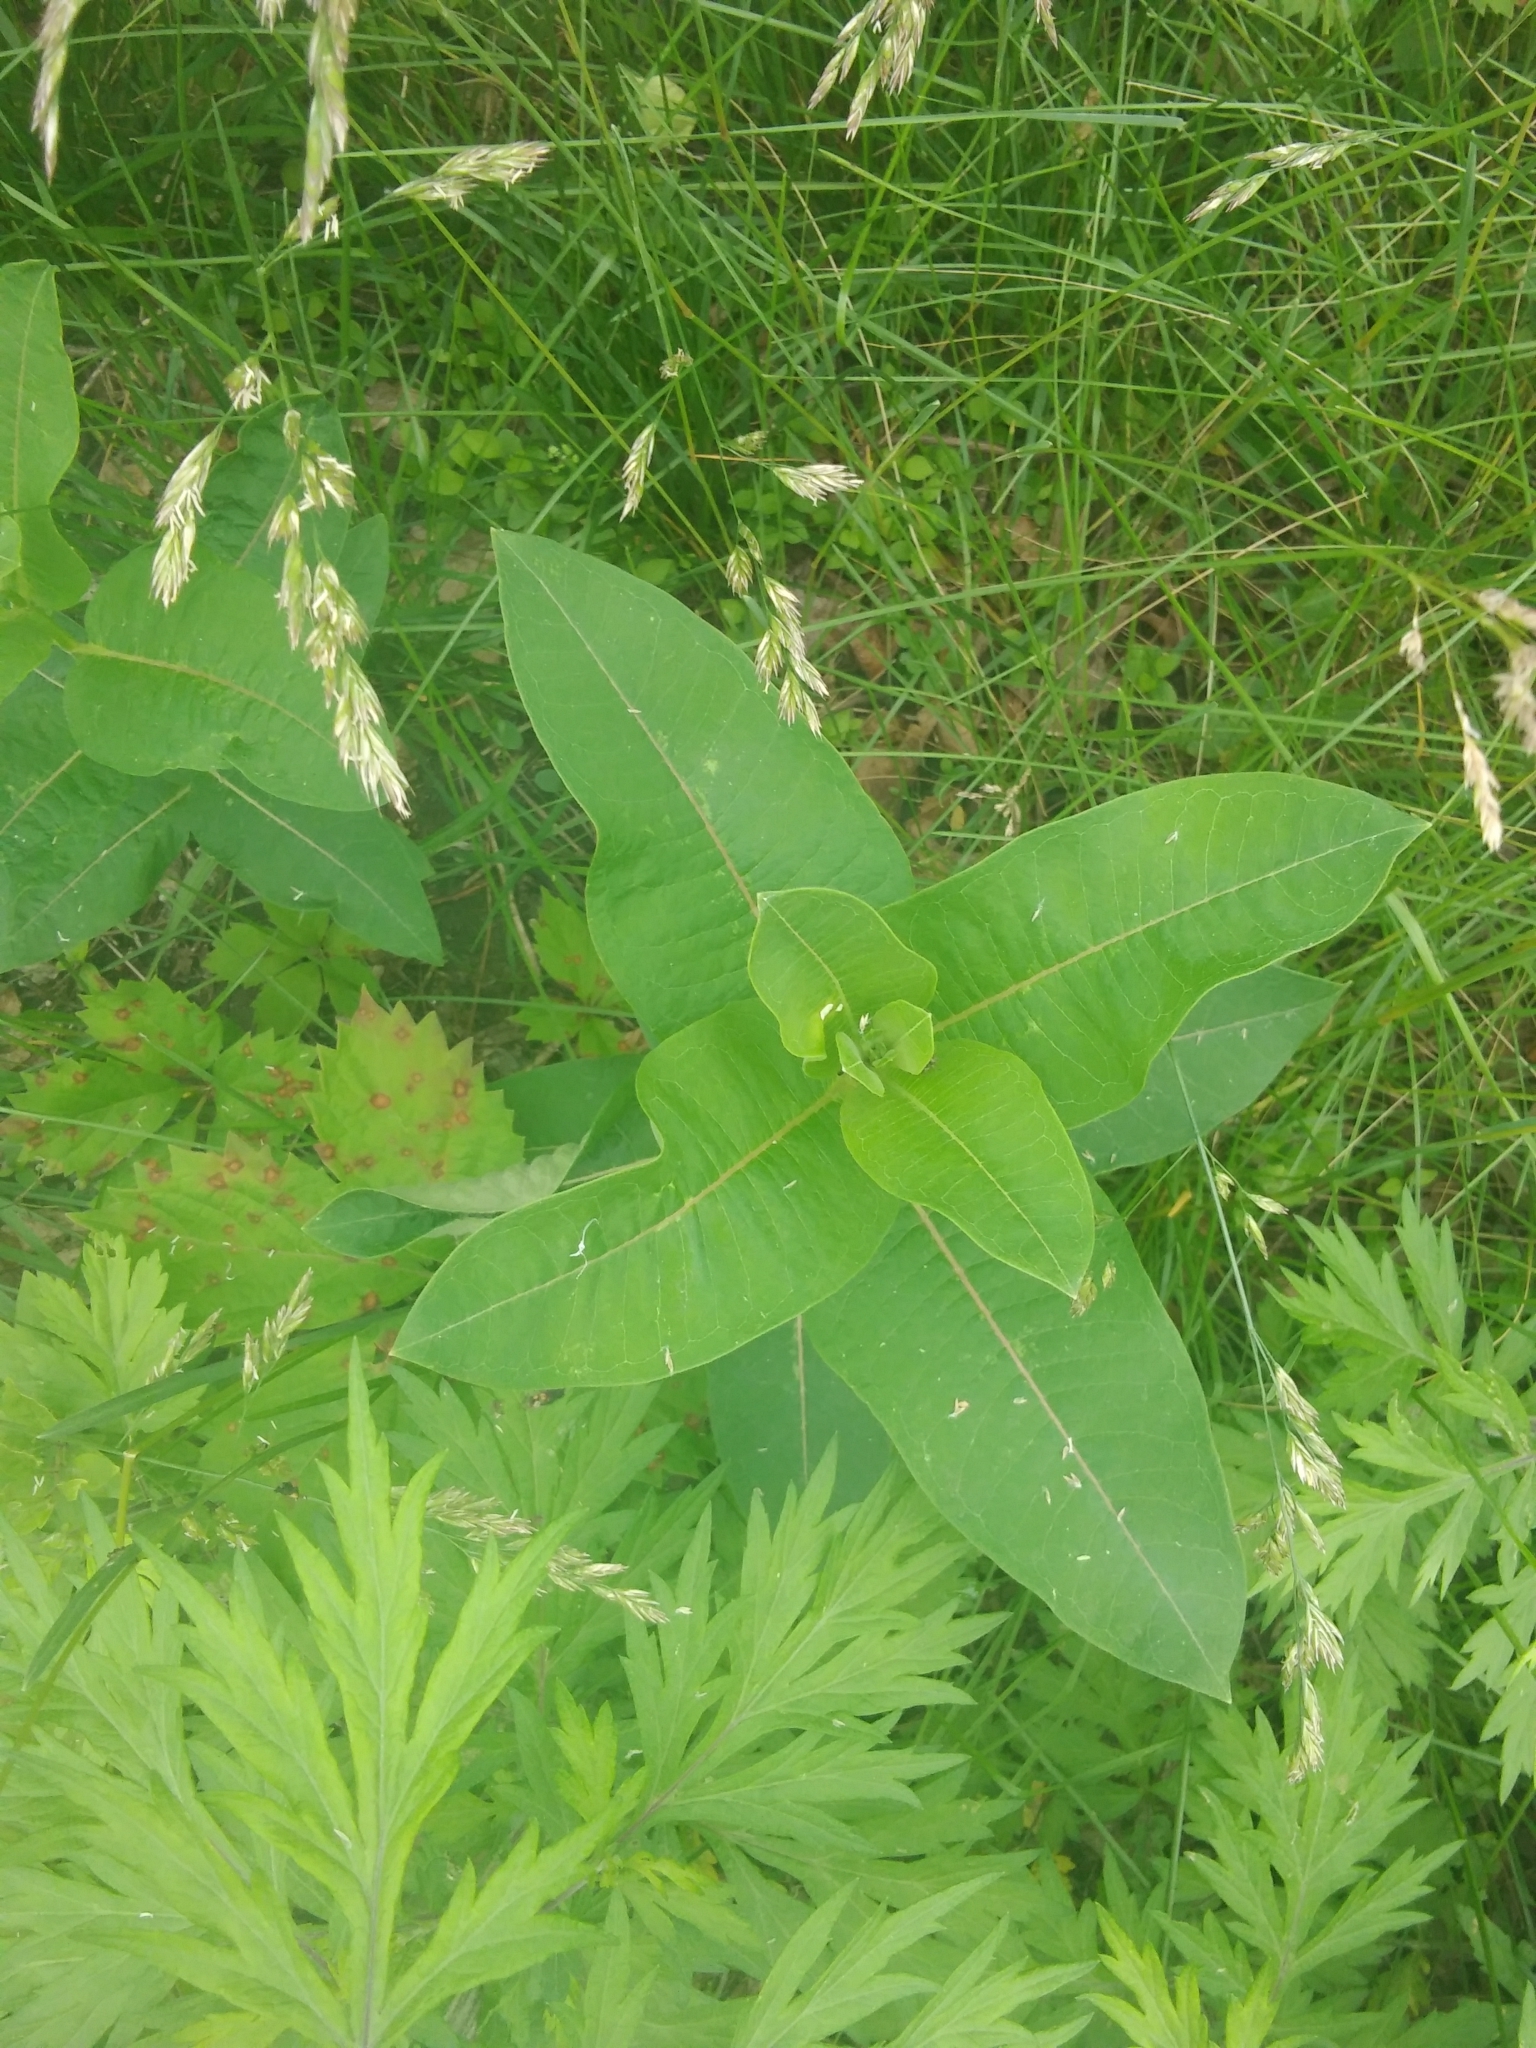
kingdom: Plantae
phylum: Tracheophyta
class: Magnoliopsida
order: Gentianales
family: Apocynaceae
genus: Asclepias
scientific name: Asclepias syriaca
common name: Common milkweed
